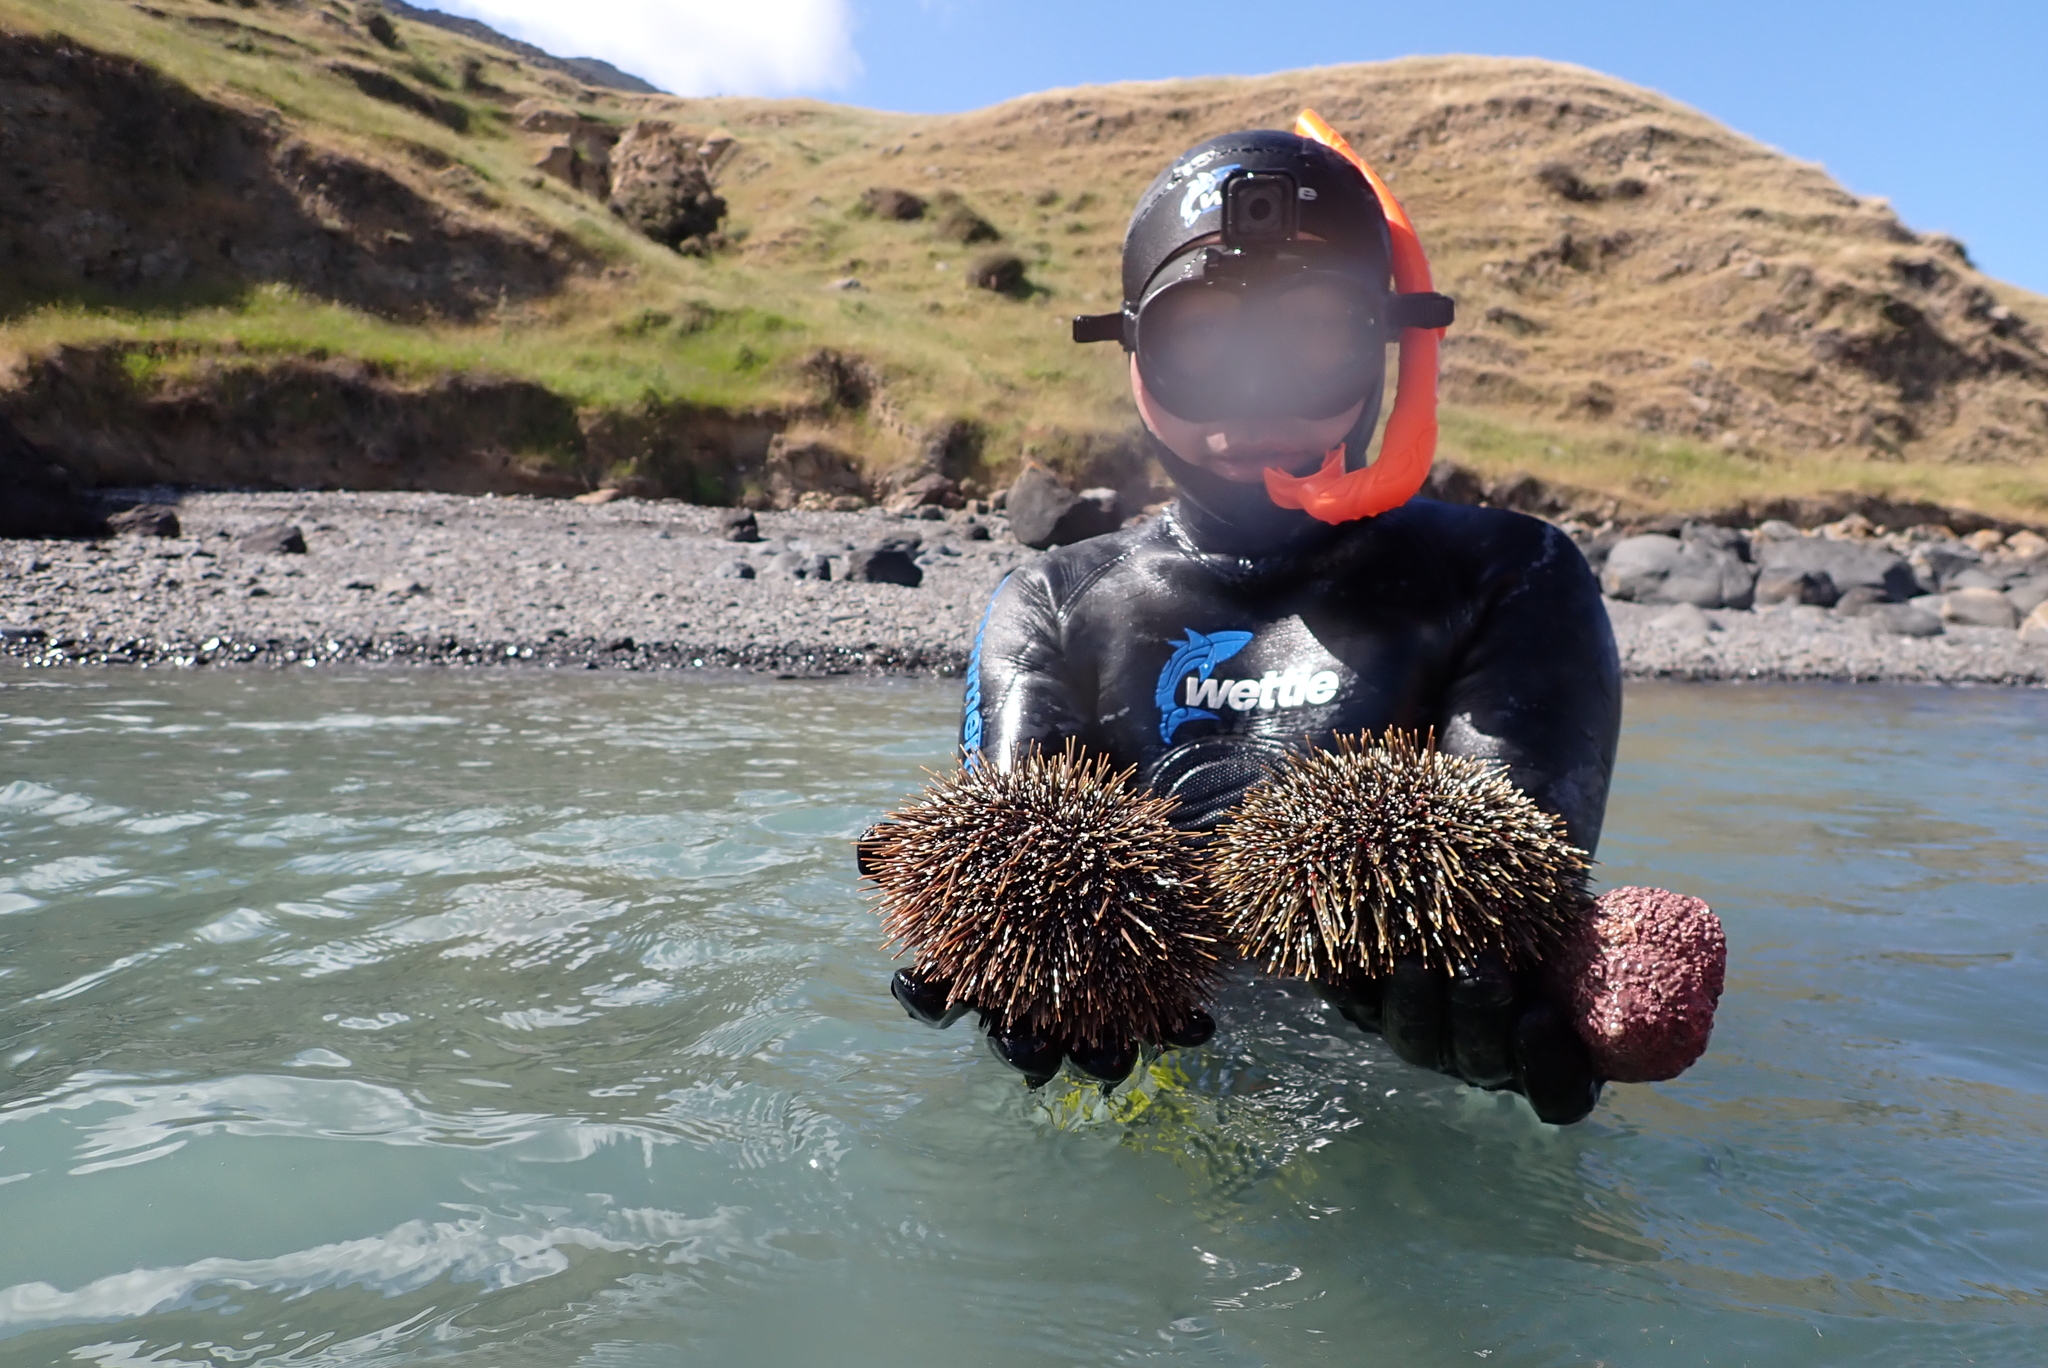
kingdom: Animalia
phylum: Echinodermata
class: Echinoidea
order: Camarodonta
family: Echinometridae
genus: Evechinus
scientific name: Evechinus chloroticus
